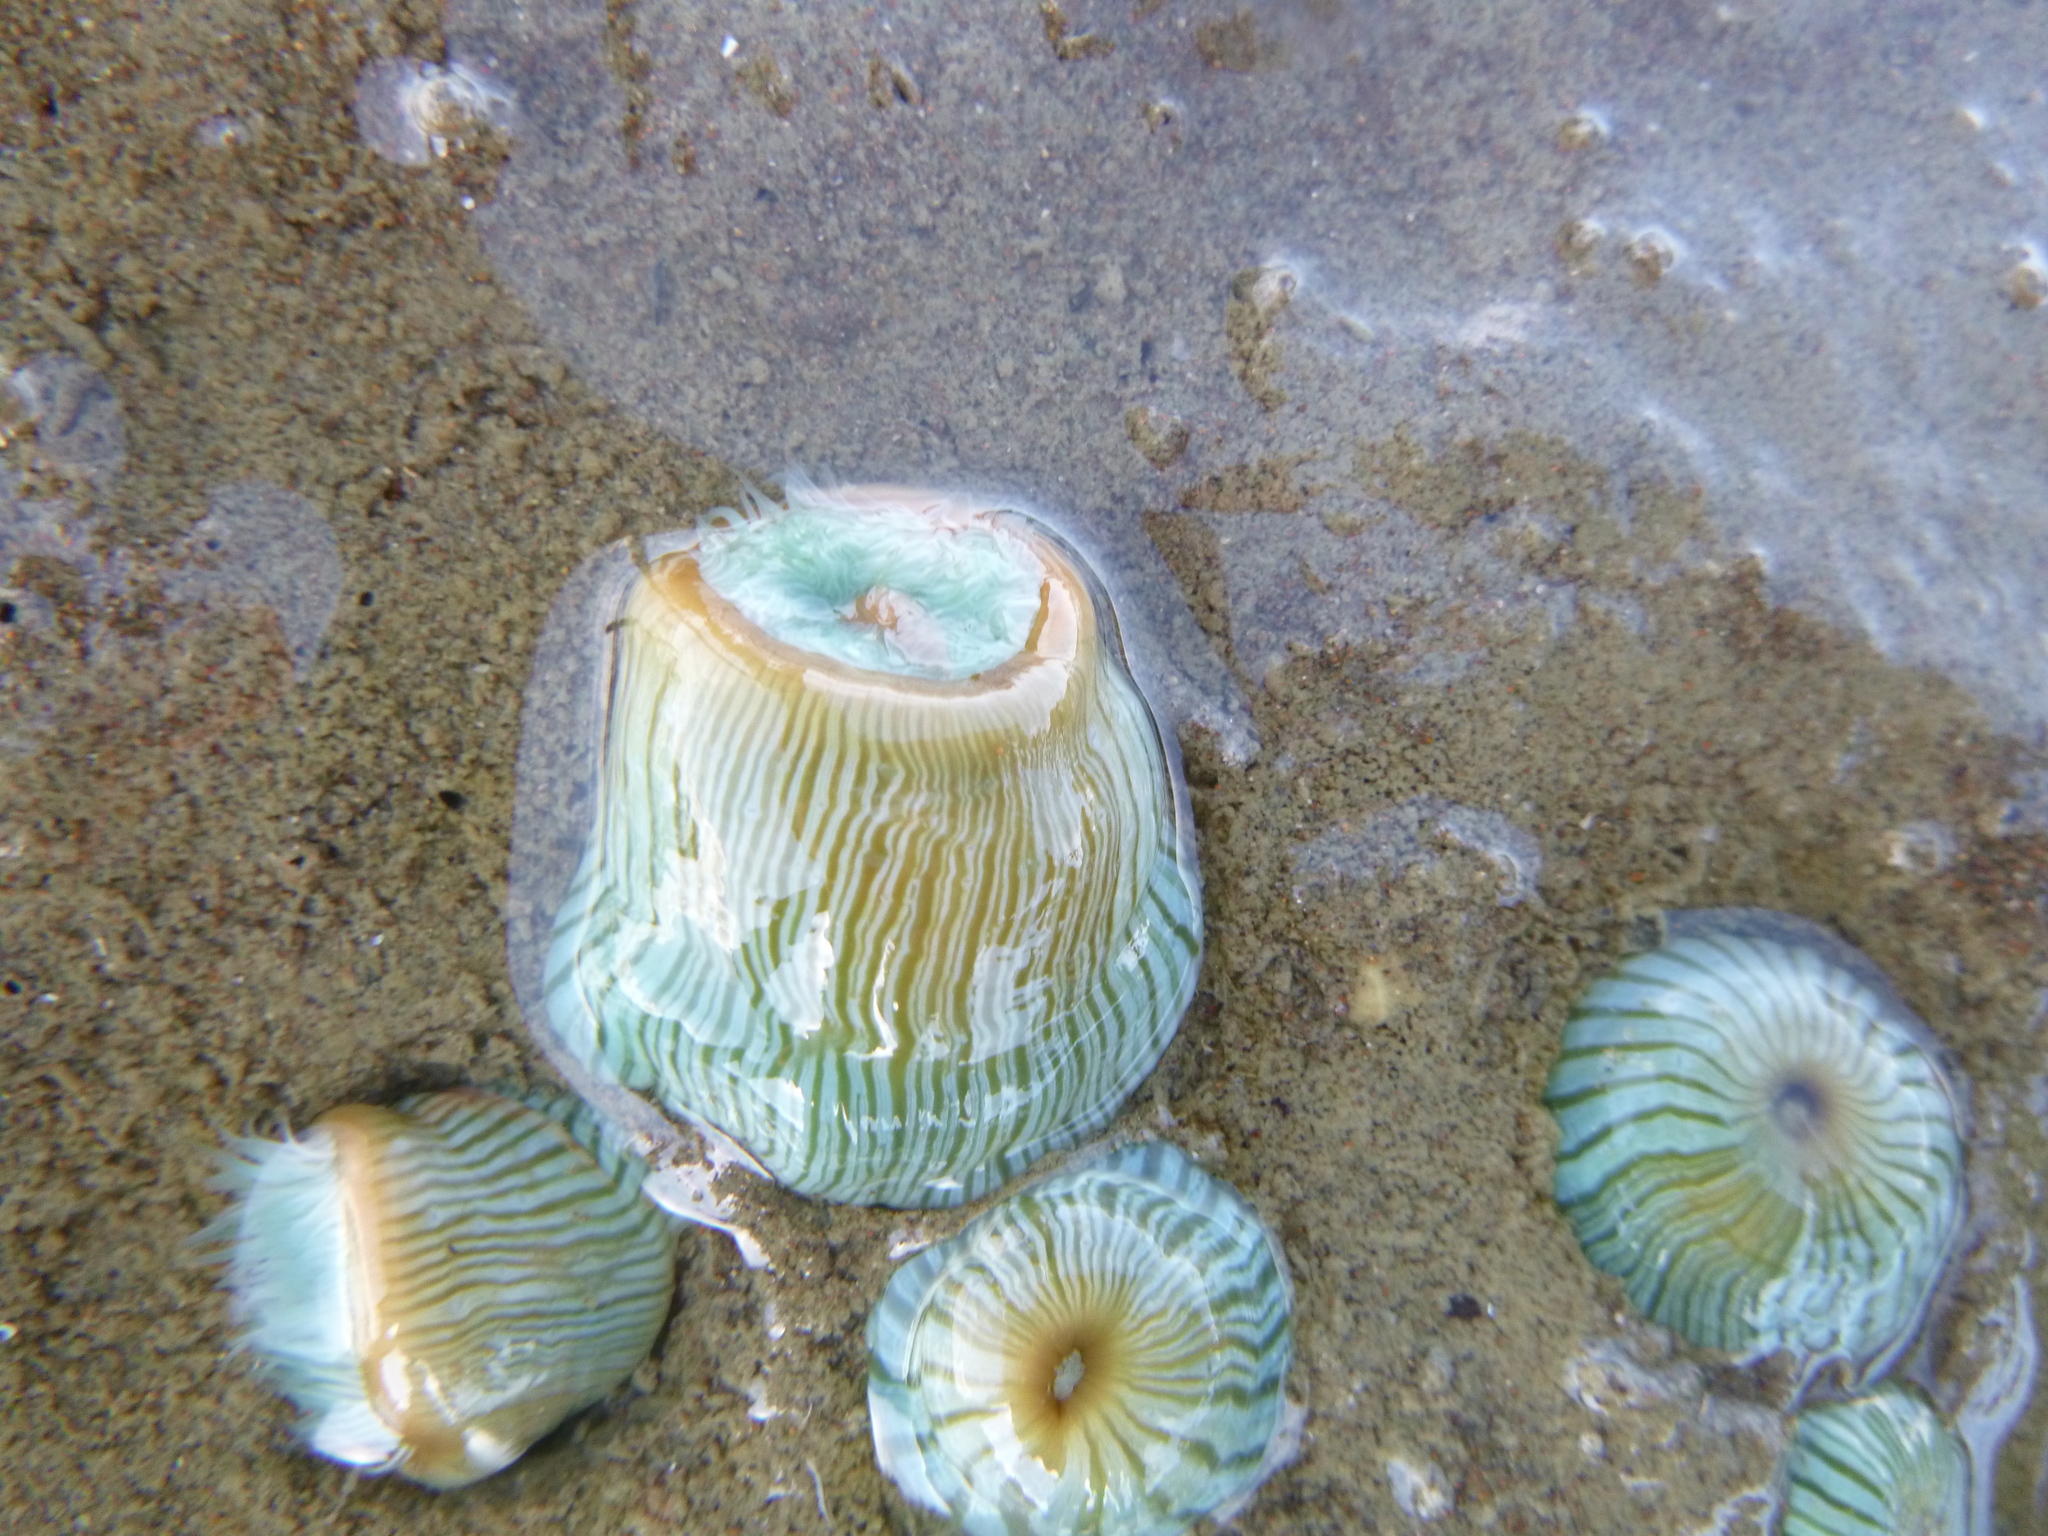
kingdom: Animalia
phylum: Cnidaria
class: Anthozoa
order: Actiniaria
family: Sagartiidae
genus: Anthothoe
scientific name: Anthothoe albocincta
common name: Orange striped anemone
